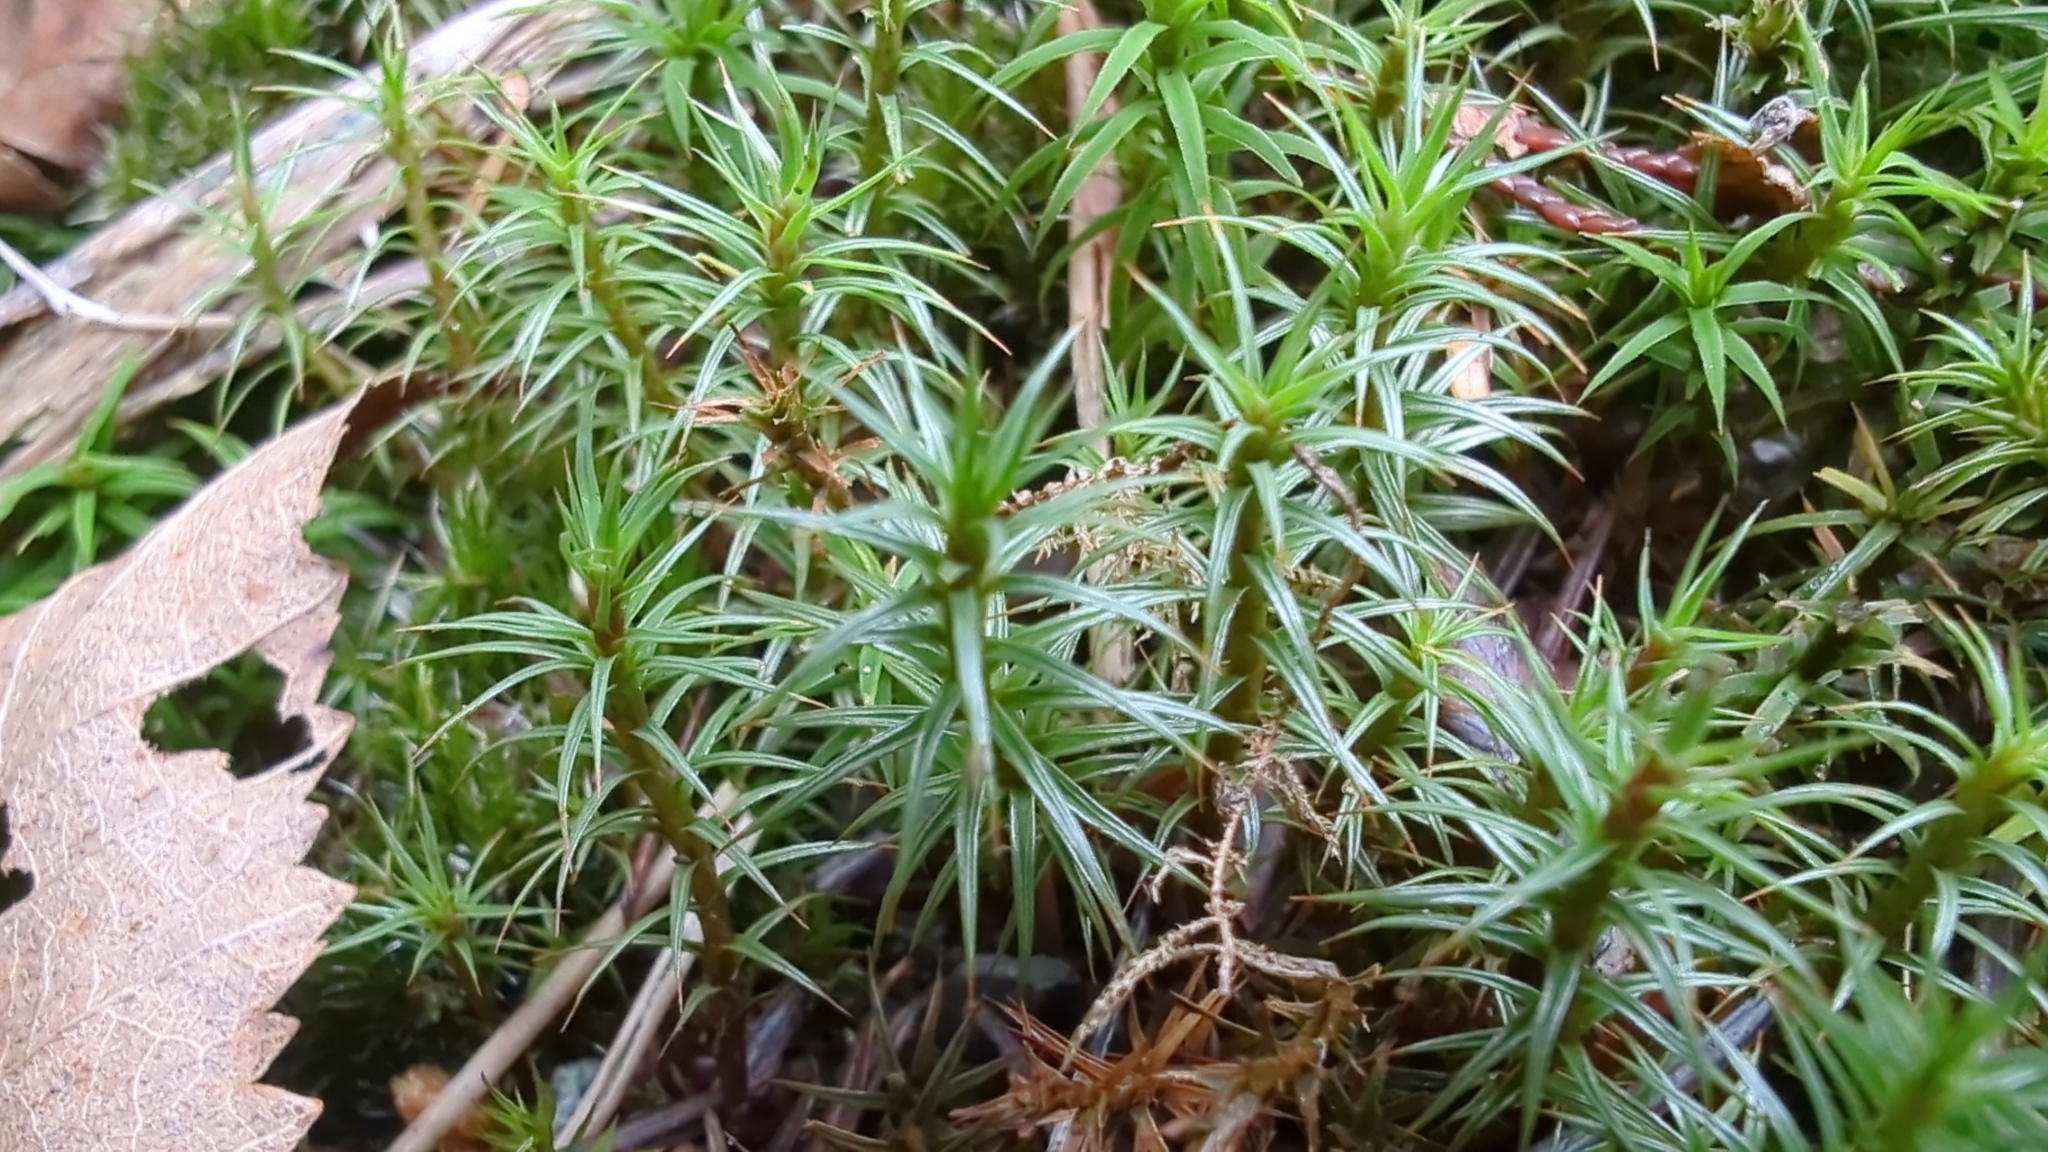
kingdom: Plantae
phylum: Bryophyta
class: Polytrichopsida
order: Polytrichales
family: Polytrichaceae
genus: Polytrichum
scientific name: Polytrichum juniperinum
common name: Juniper haircap moss
